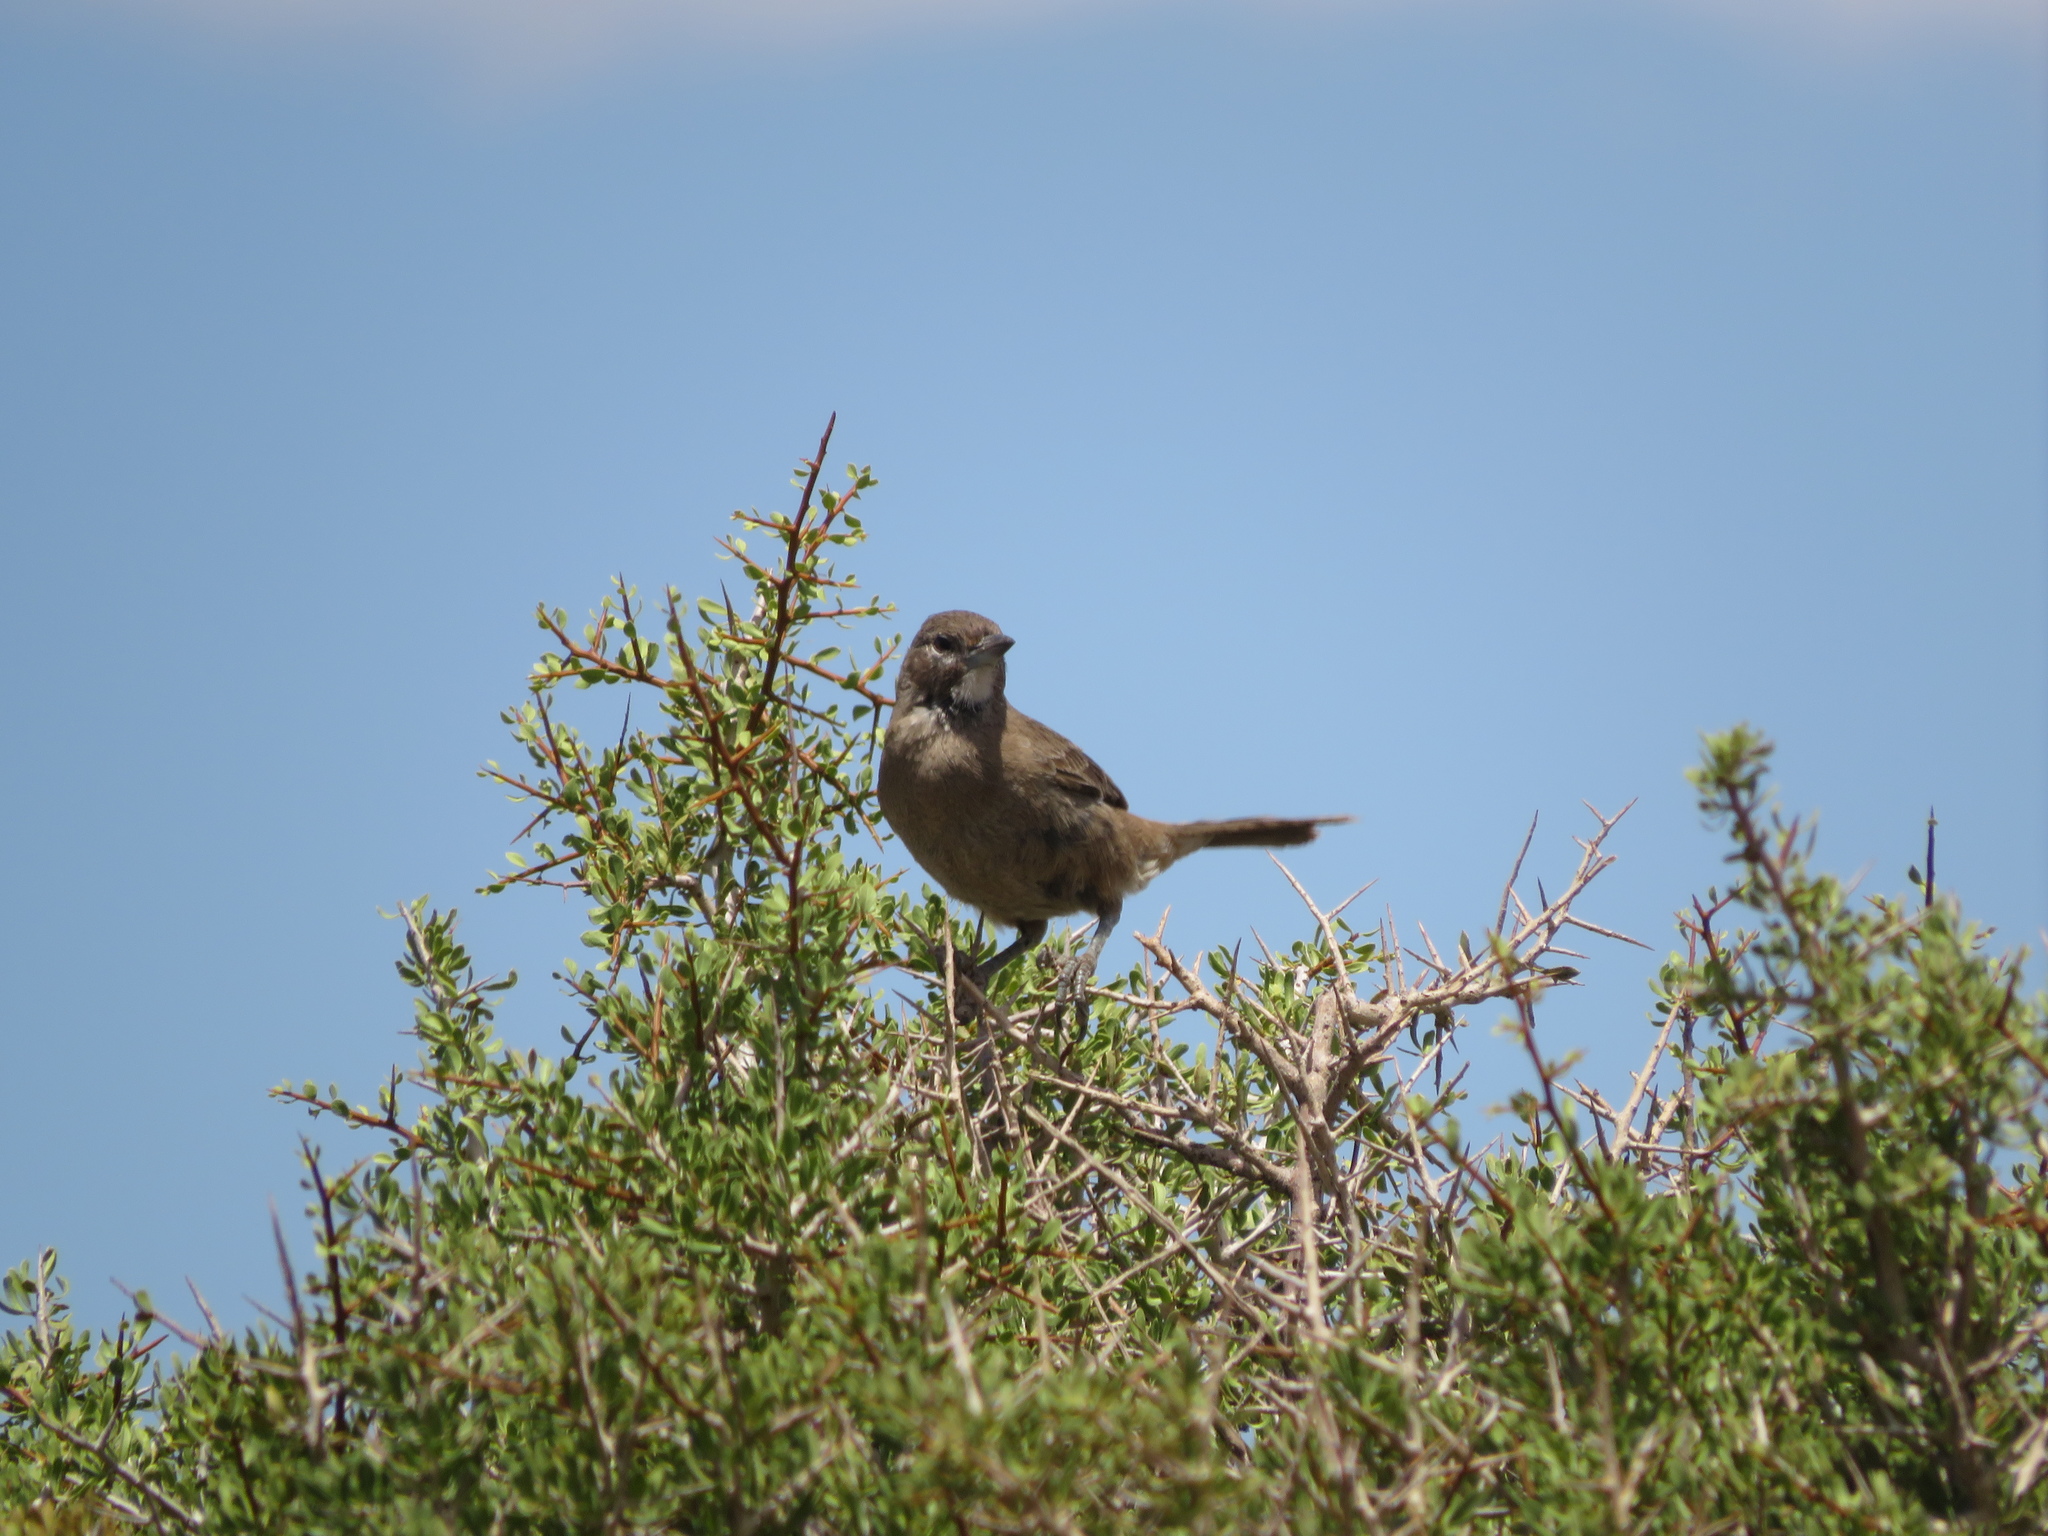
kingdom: Animalia
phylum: Chordata
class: Aves
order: Passeriformes
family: Furnariidae
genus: Pseudoseisura
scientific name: Pseudoseisura gutturalis
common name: White-throated cacholote
